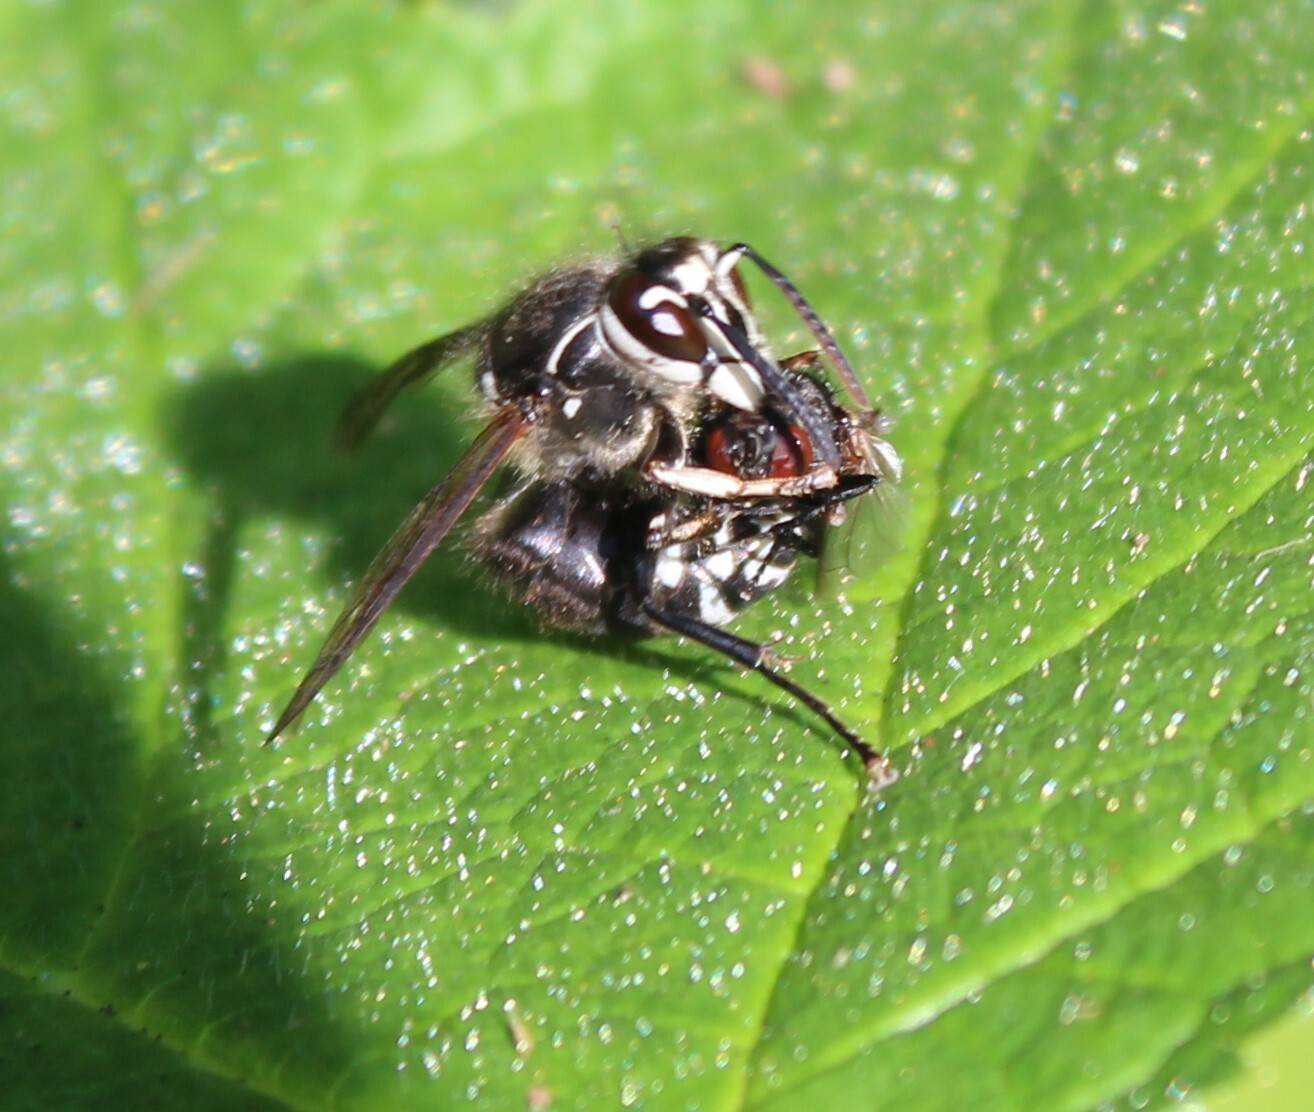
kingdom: Animalia
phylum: Arthropoda
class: Insecta
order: Hymenoptera
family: Vespidae
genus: Dolichovespula
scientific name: Dolichovespula maculata
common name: Bald-faced hornet
